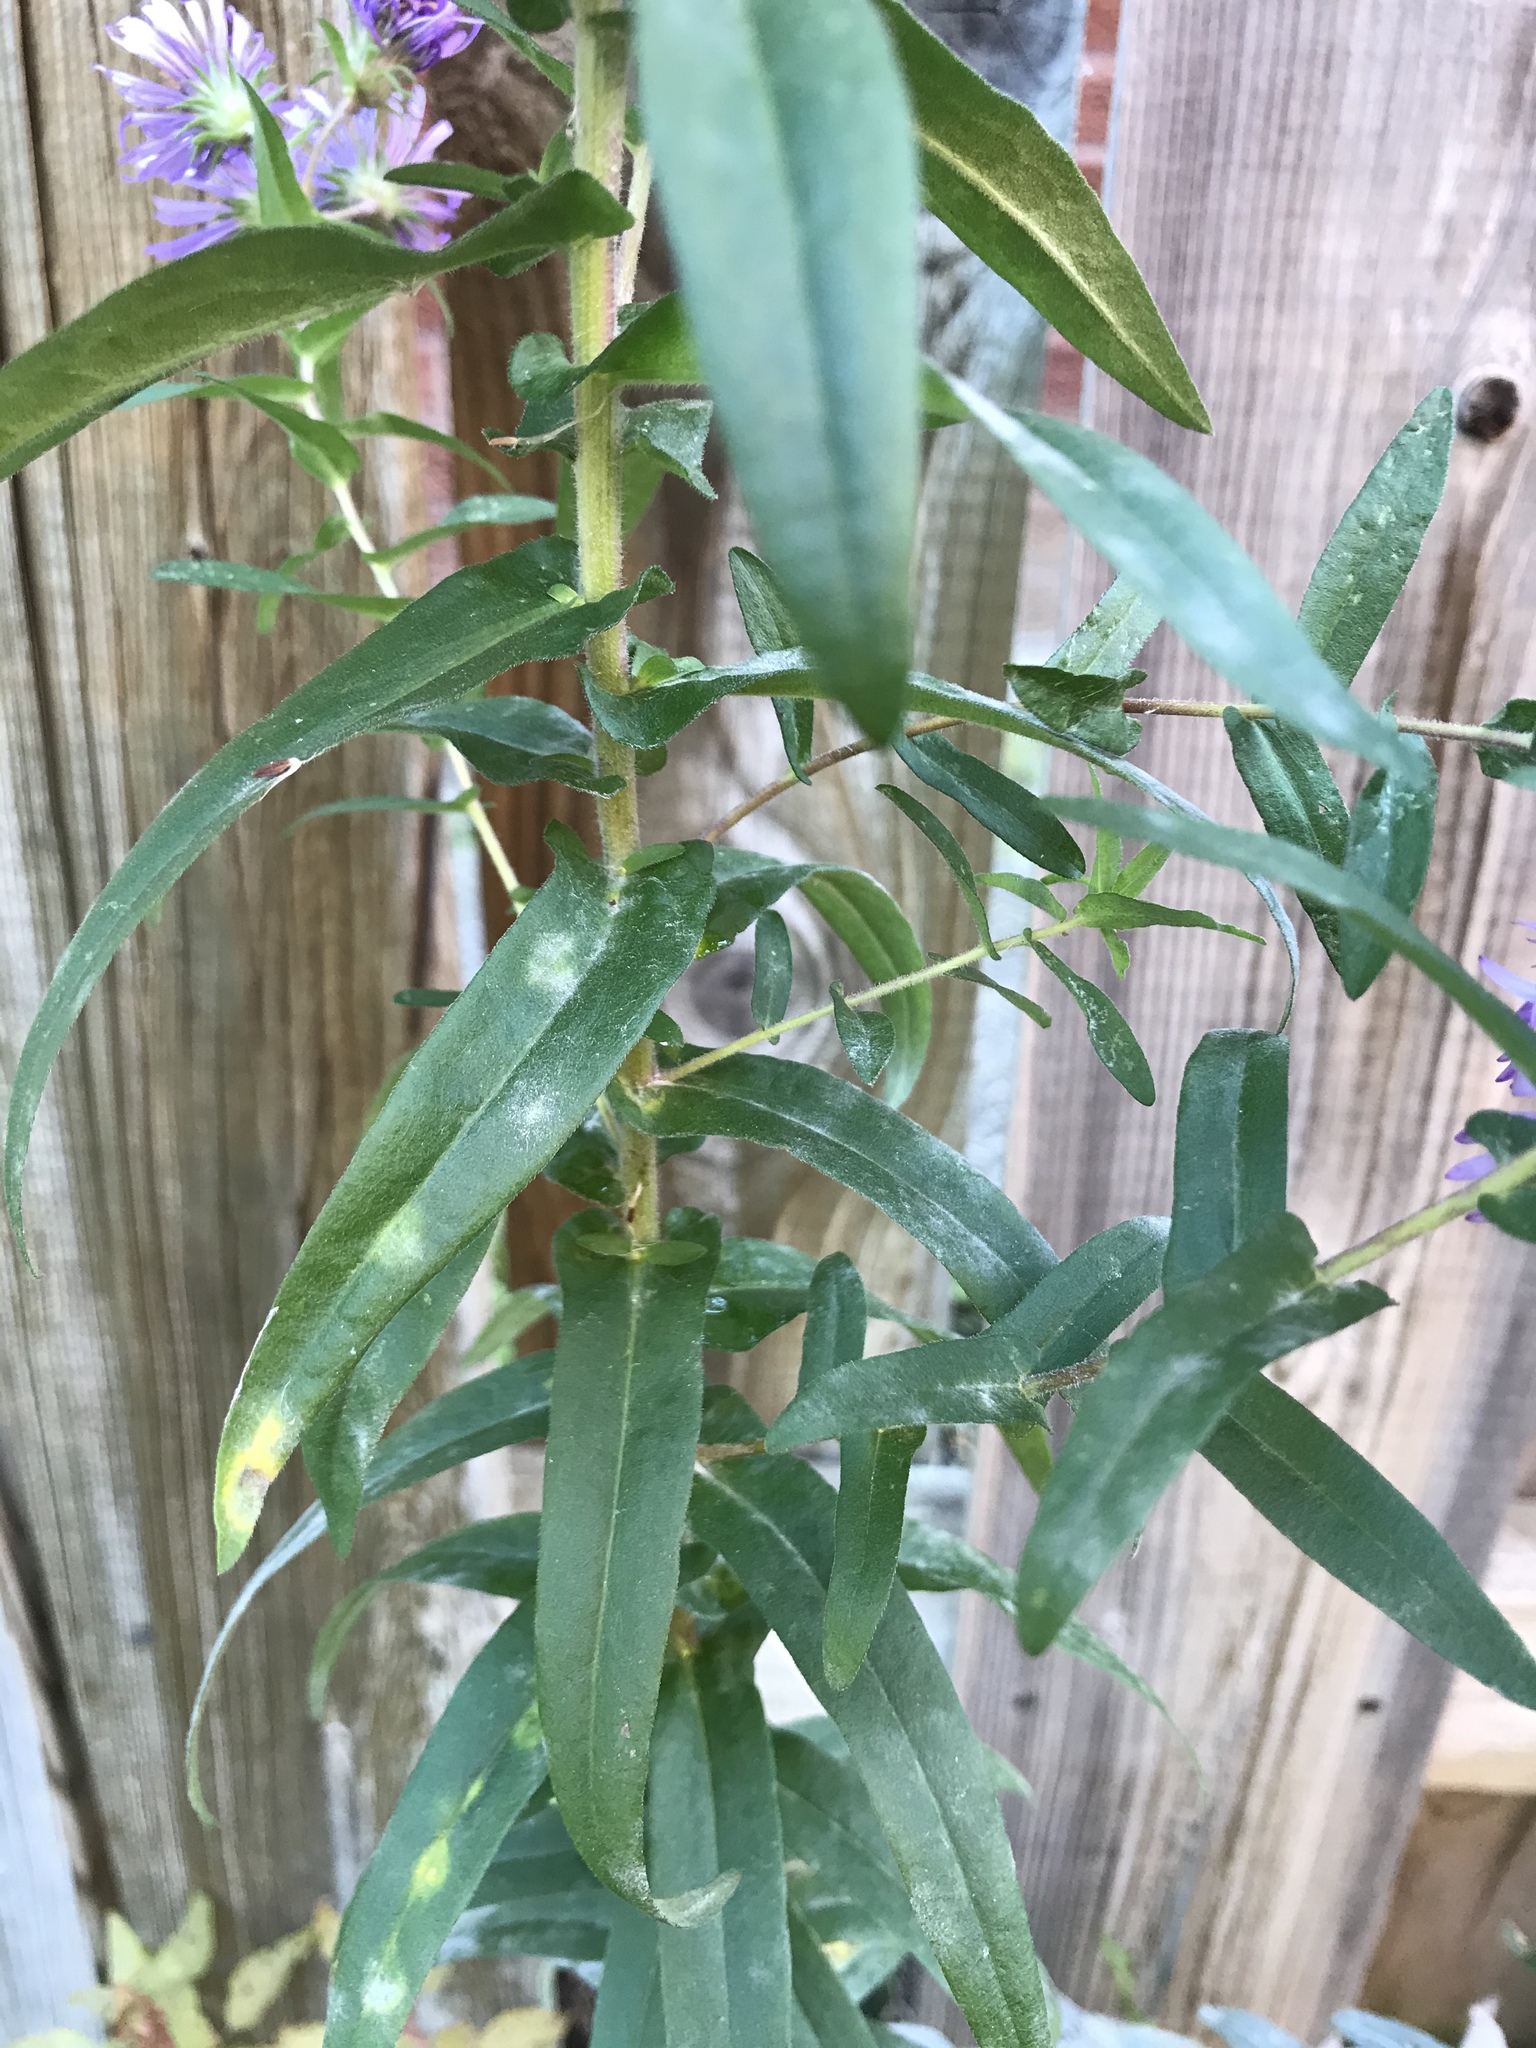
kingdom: Plantae
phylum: Tracheophyta
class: Magnoliopsida
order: Asterales
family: Asteraceae
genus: Symphyotrichum
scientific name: Symphyotrichum novae-angliae
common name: Michaelmas daisy
